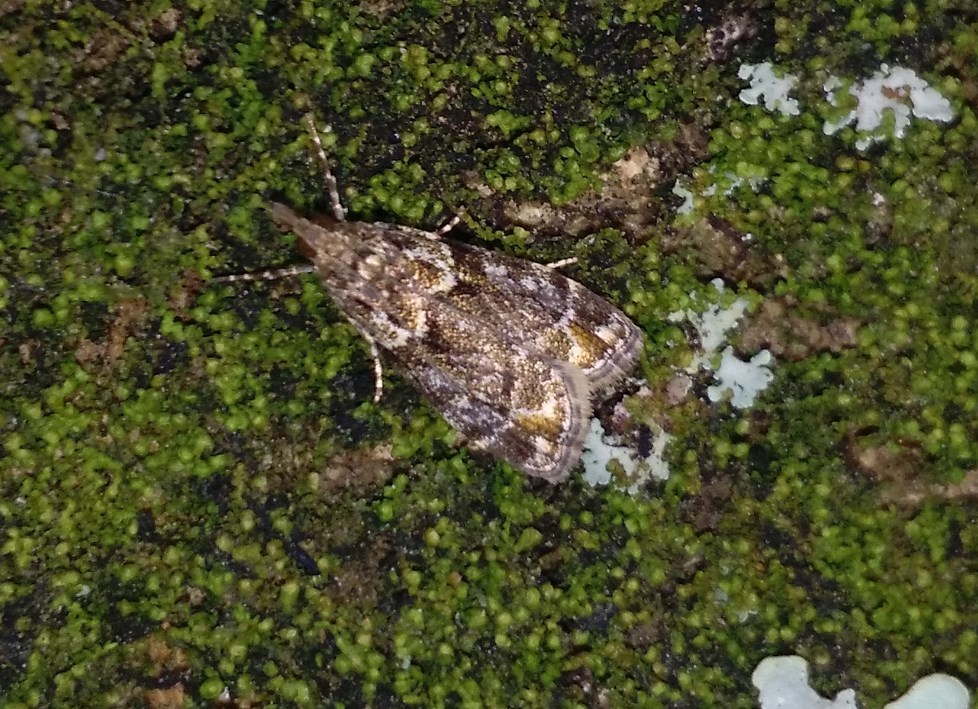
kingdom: Animalia
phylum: Arthropoda
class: Insecta
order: Lepidoptera
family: Crambidae
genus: Eudonia
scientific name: Eudonia minualis
